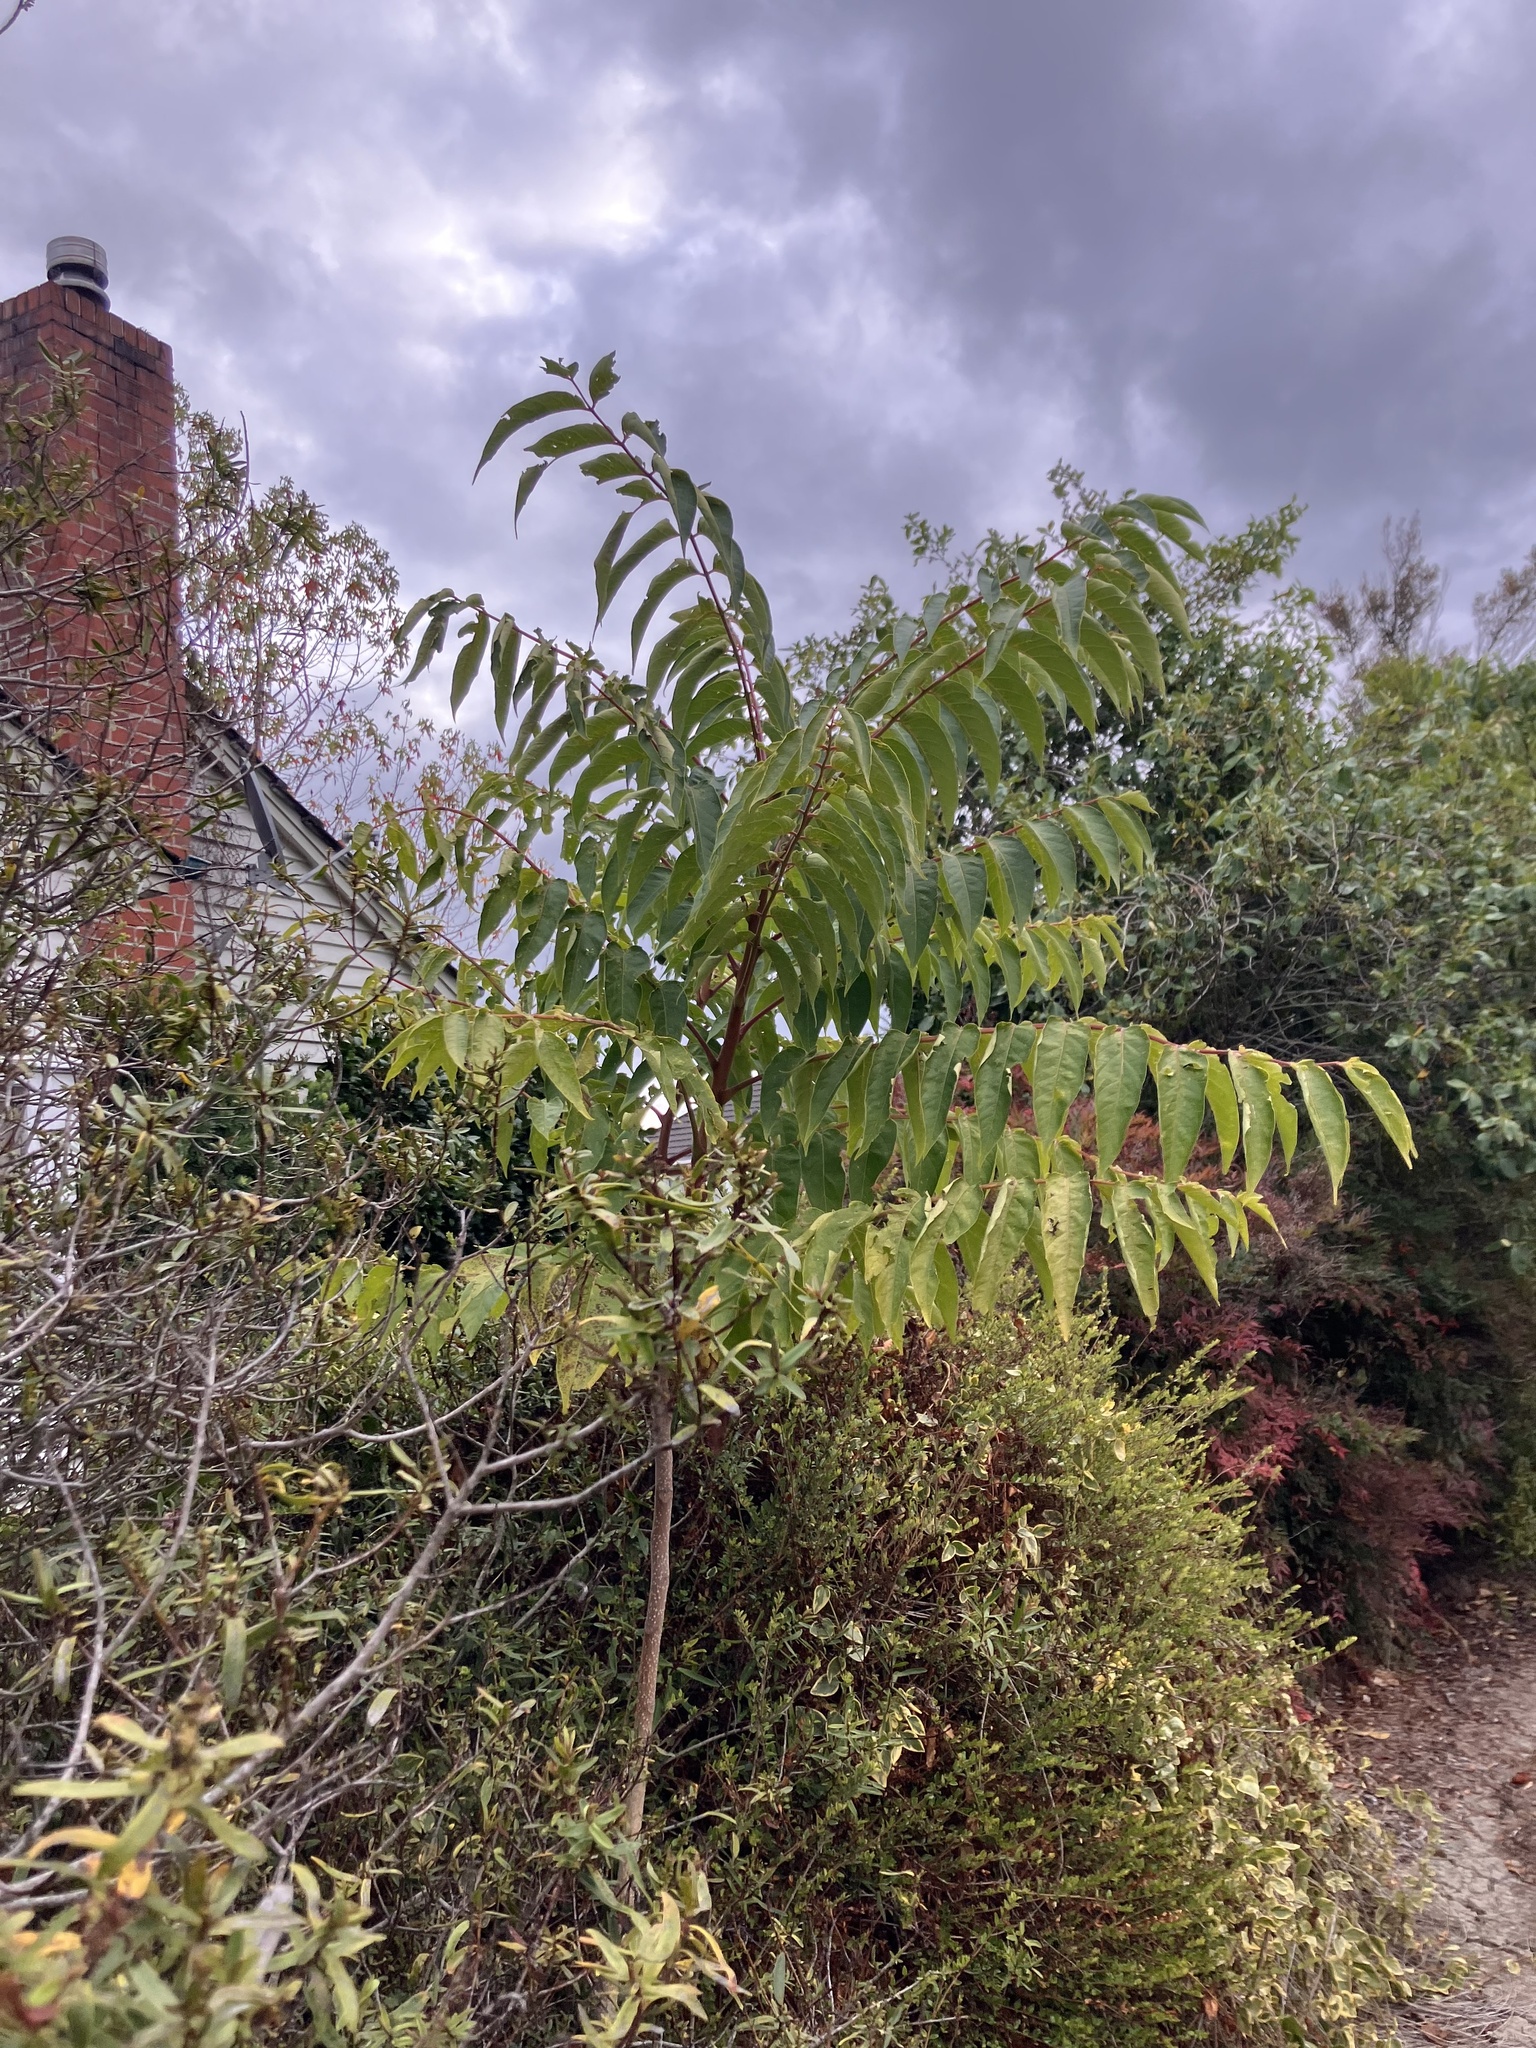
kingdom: Plantae
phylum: Tracheophyta
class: Magnoliopsida
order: Sapindales
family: Simaroubaceae
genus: Ailanthus
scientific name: Ailanthus altissima
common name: Tree-of-heaven
